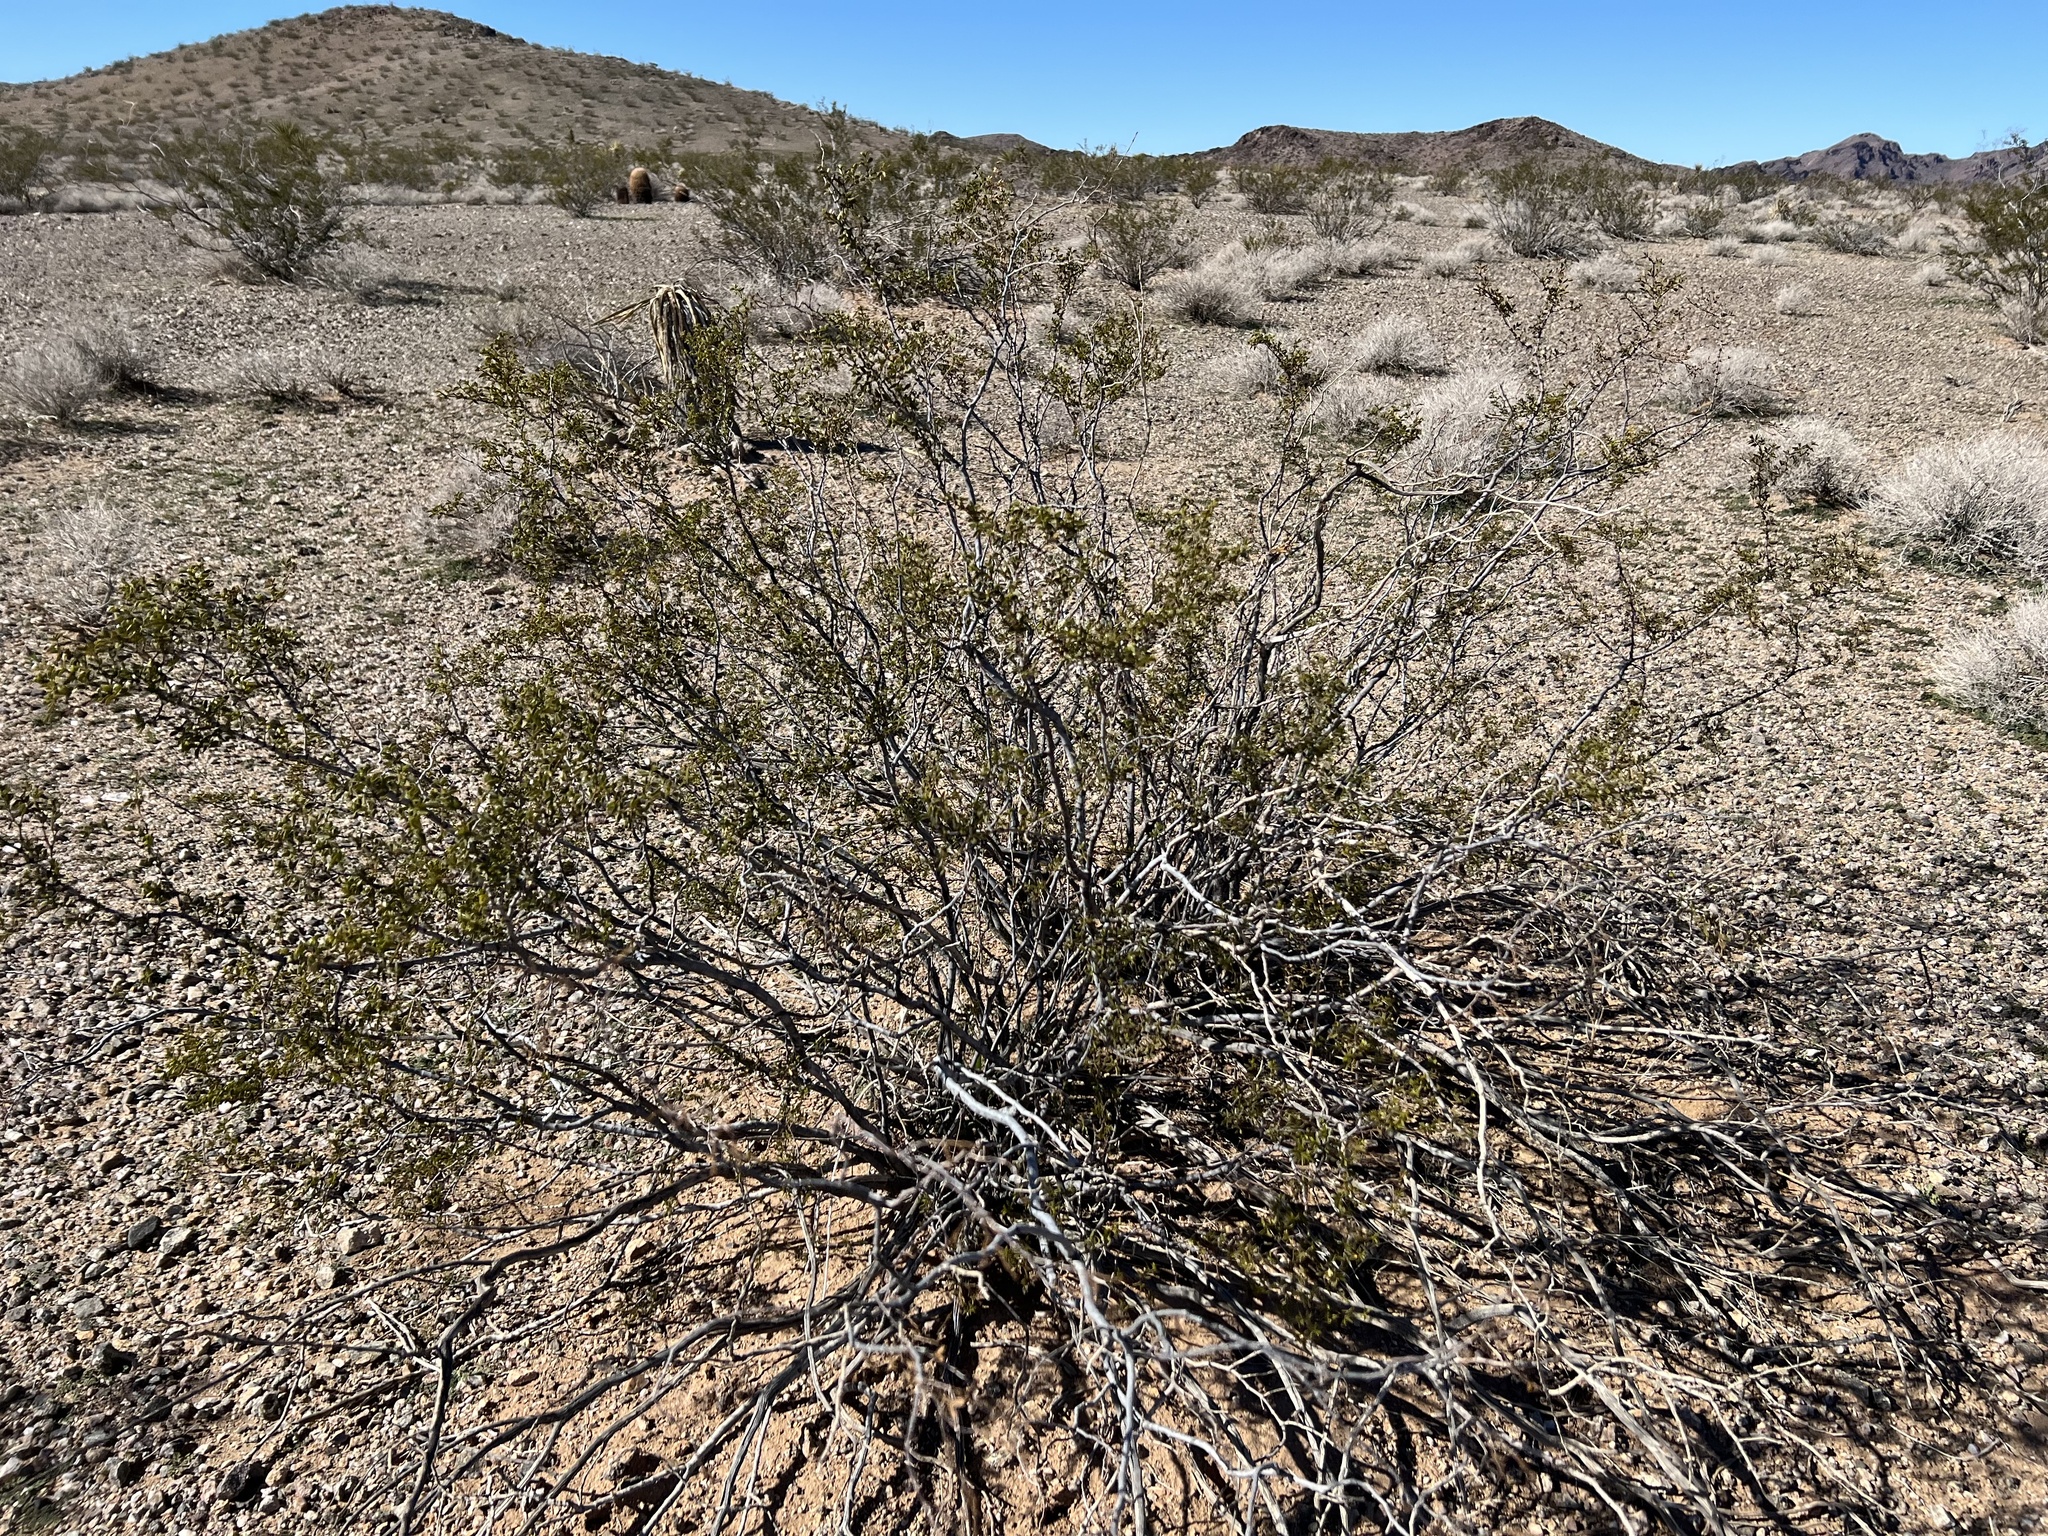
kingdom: Plantae
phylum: Tracheophyta
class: Magnoliopsida
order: Zygophyllales
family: Zygophyllaceae
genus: Larrea
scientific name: Larrea tridentata
